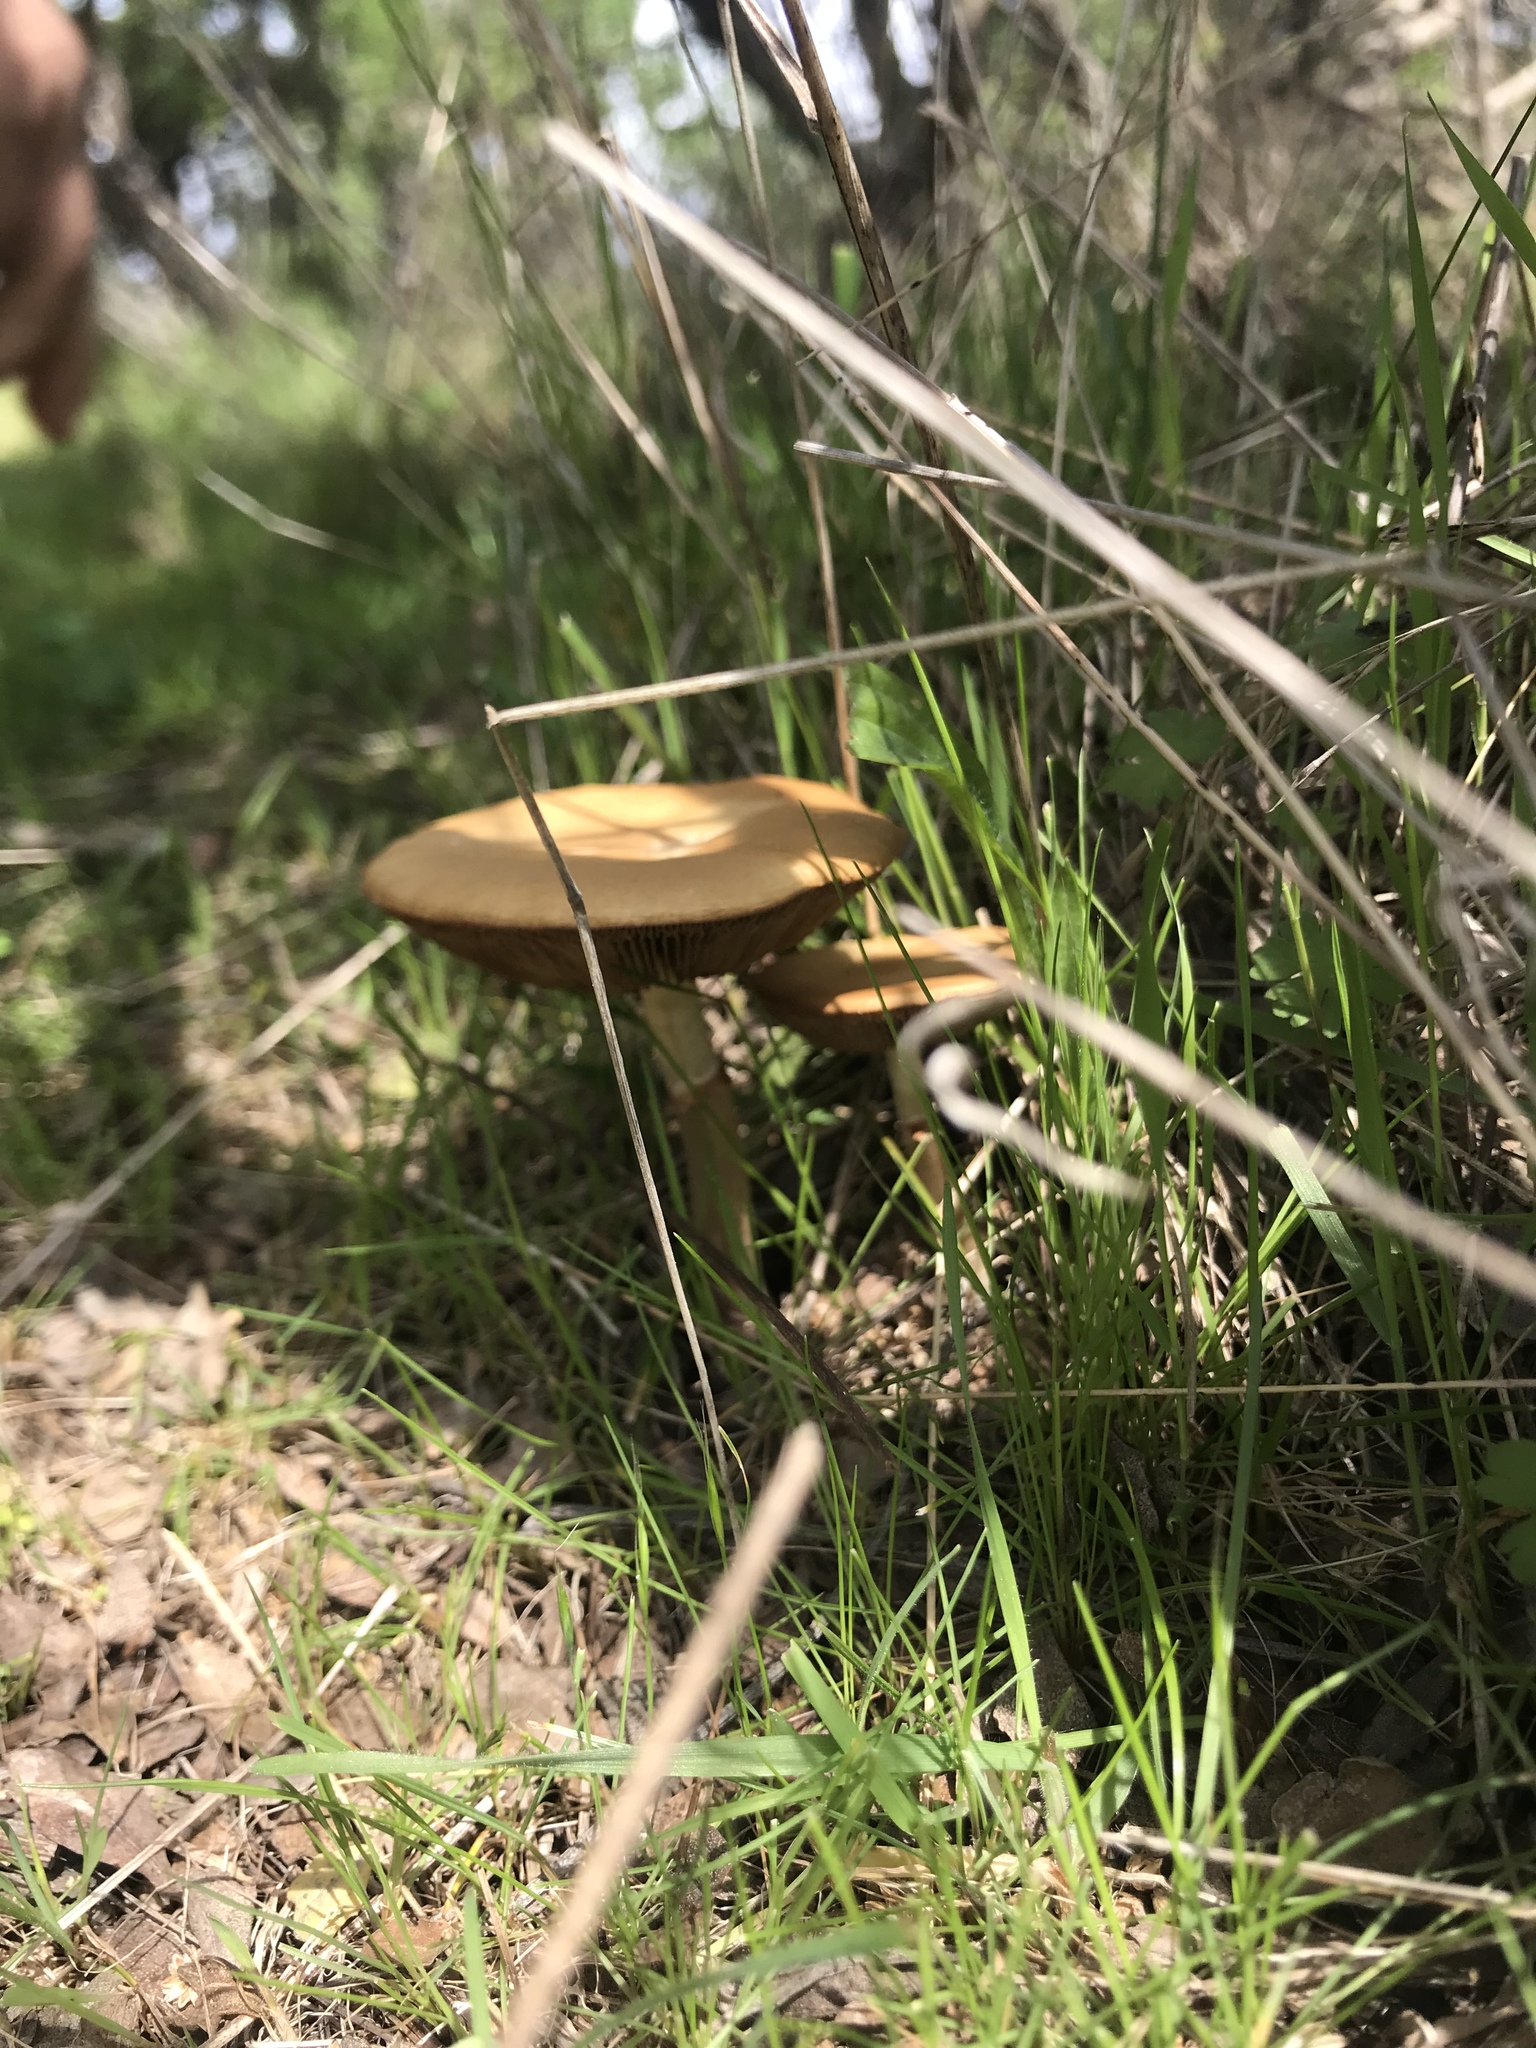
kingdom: Fungi
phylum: Basidiomycota
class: Agaricomycetes
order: Agaricales
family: Strophariaceae
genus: Agrocybe
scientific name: Agrocybe praecox
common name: Spring fieldcap
